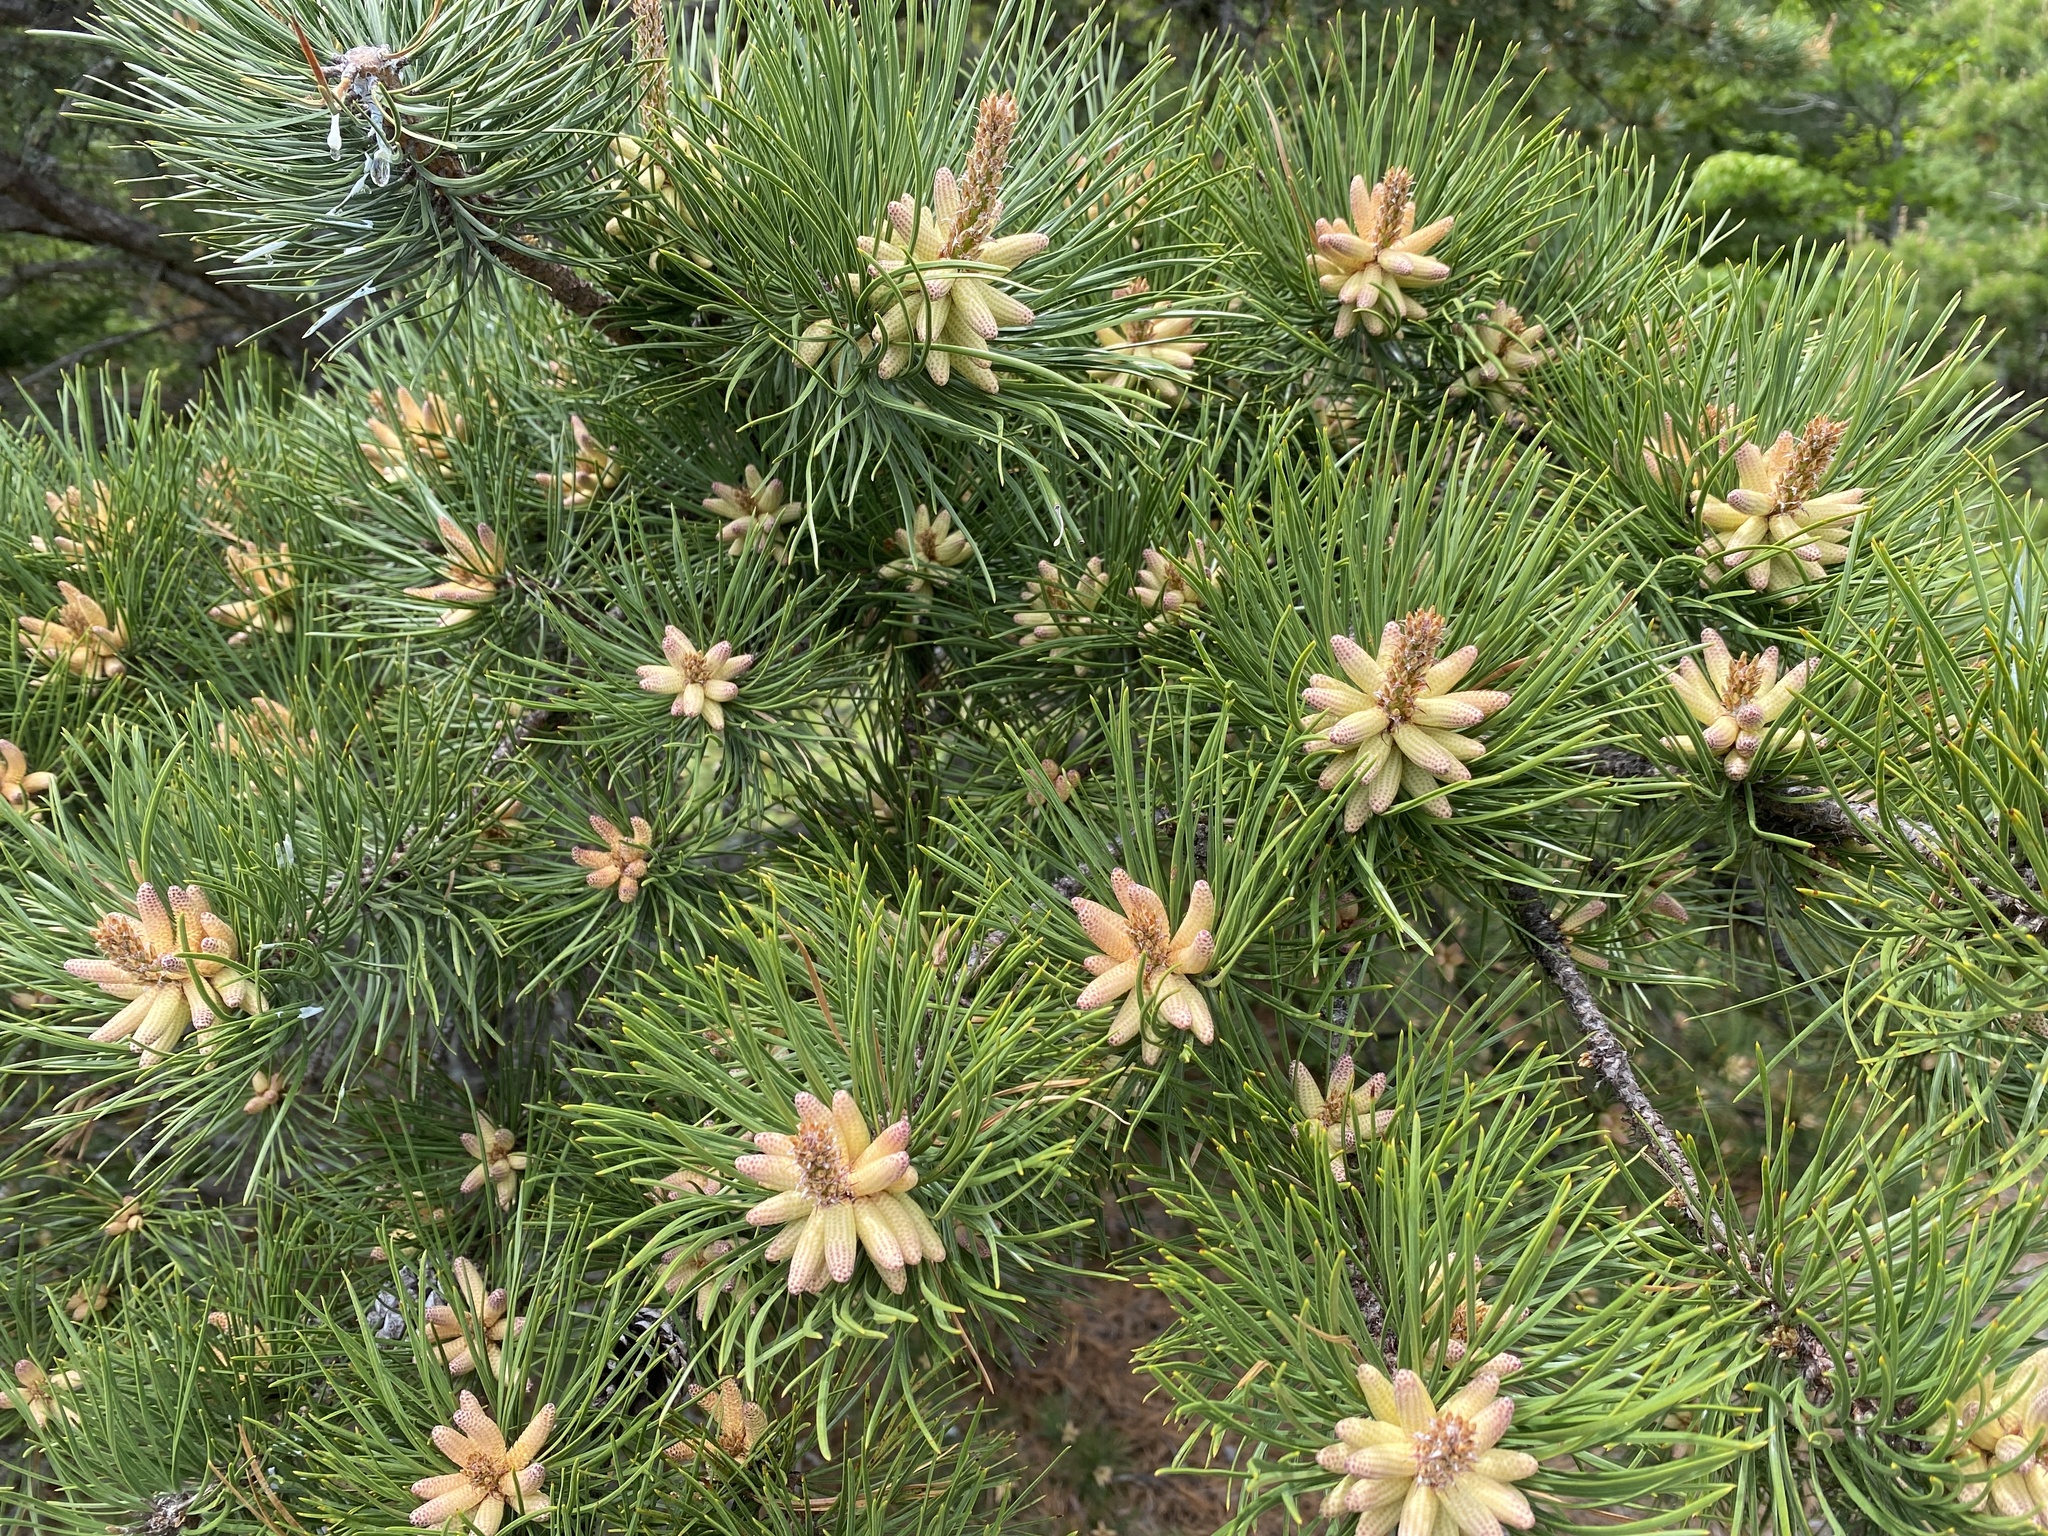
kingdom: Plantae
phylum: Tracheophyta
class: Pinopsida
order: Pinales
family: Pinaceae
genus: Pinus
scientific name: Pinus rigida
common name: Pitch pine
